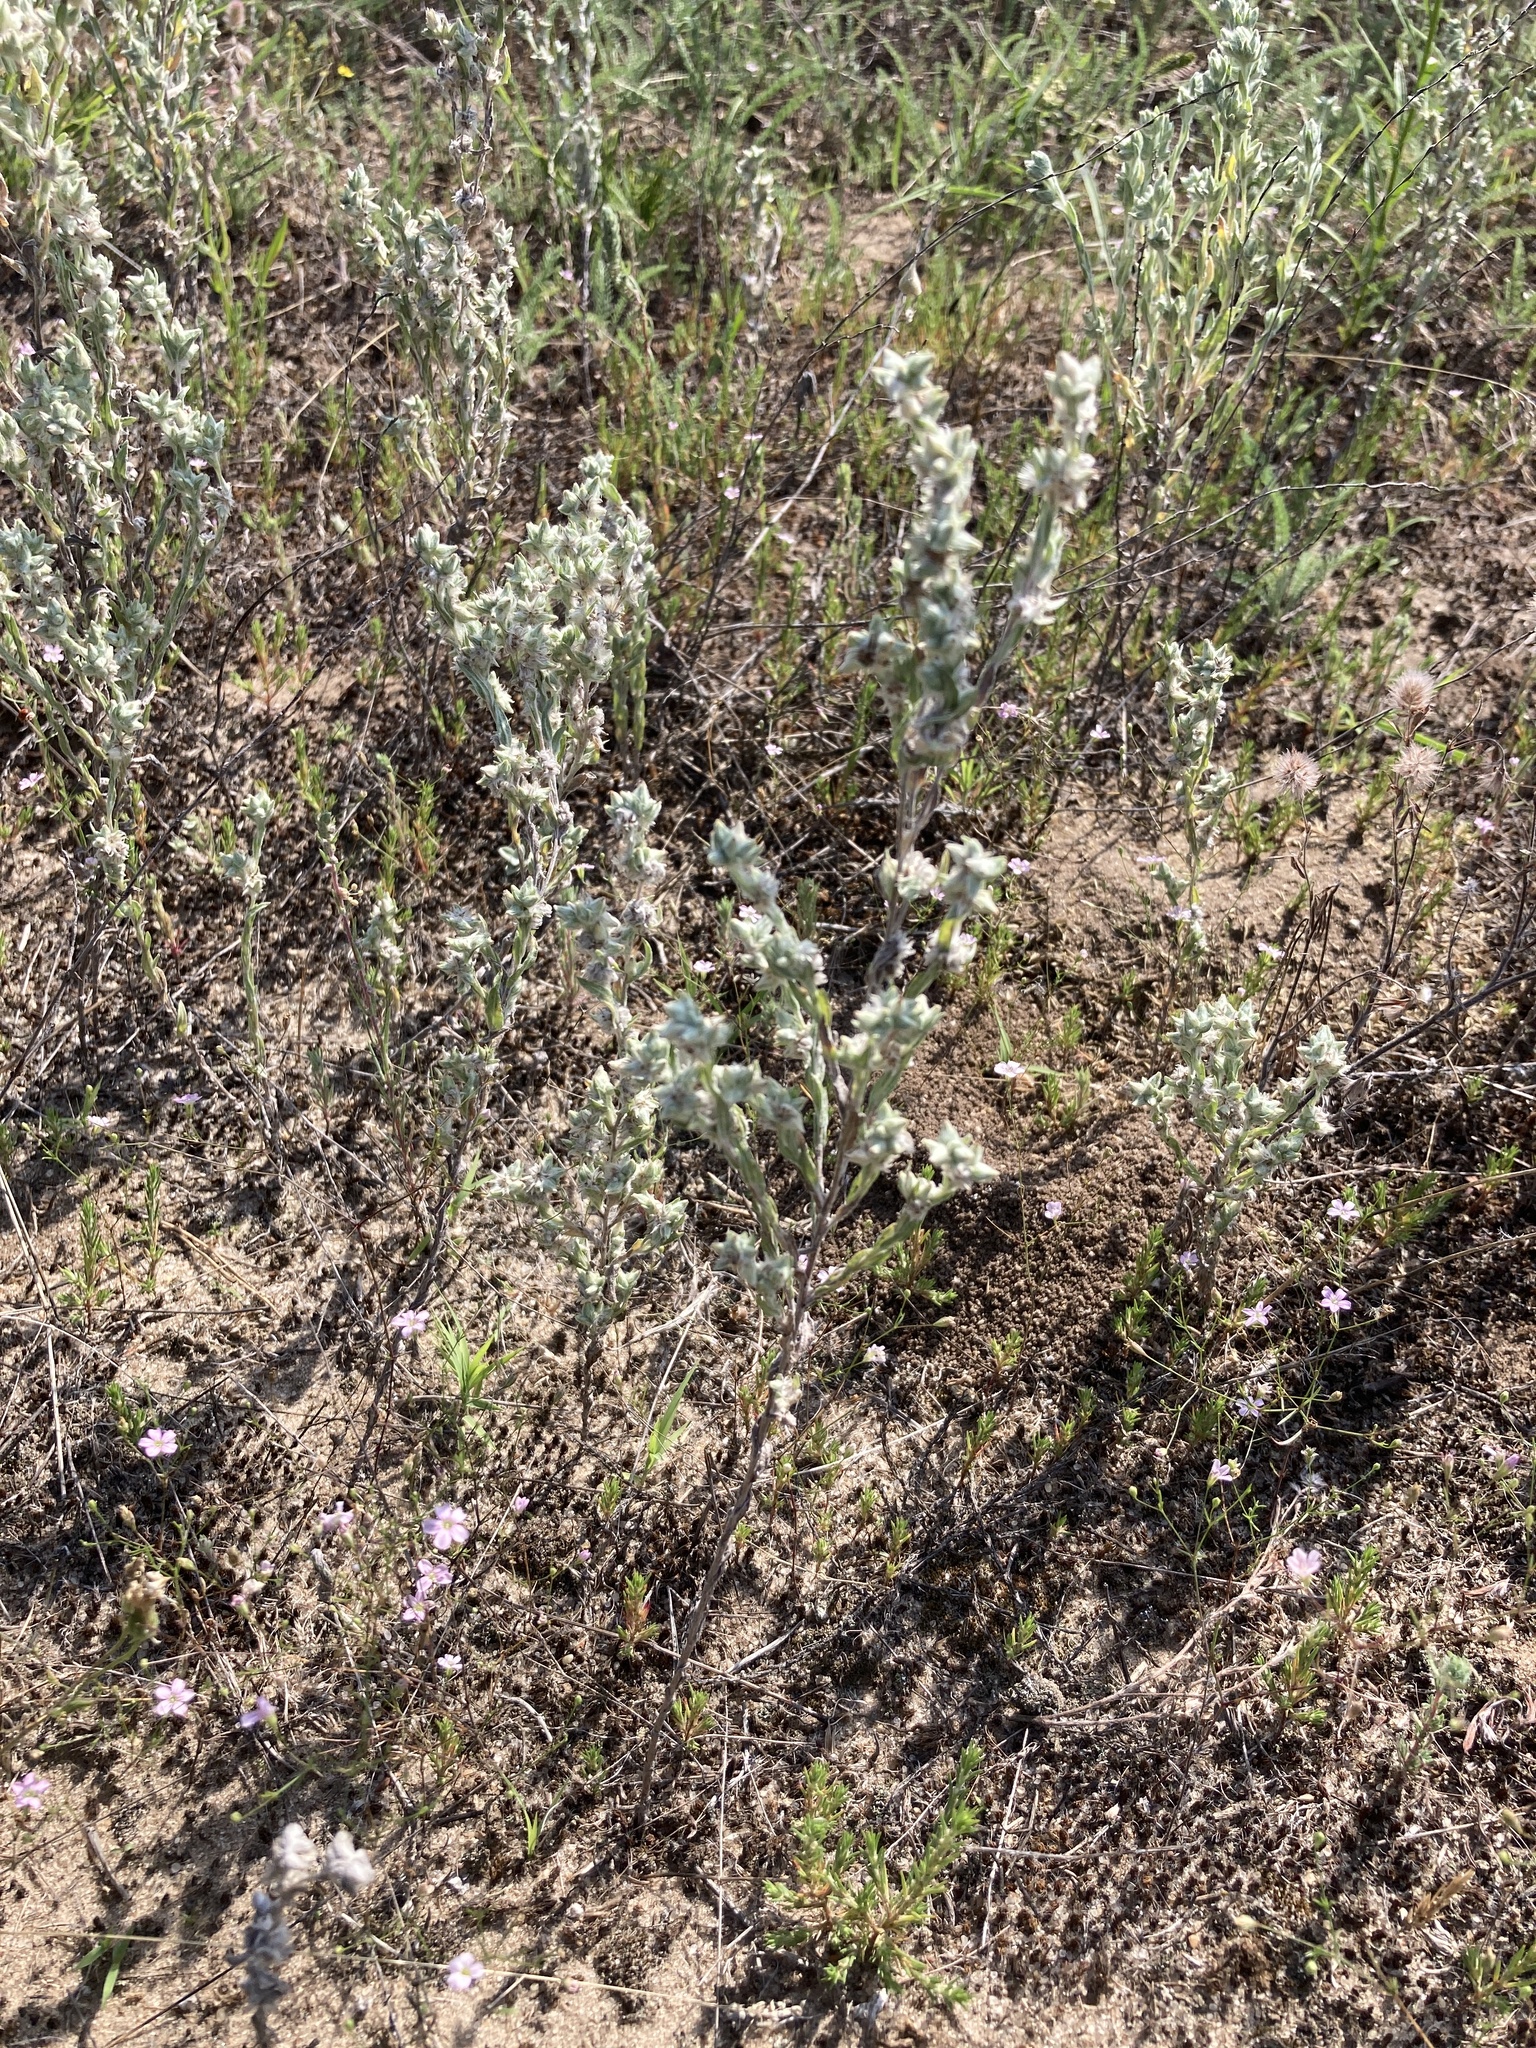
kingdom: Plantae
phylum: Tracheophyta
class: Magnoliopsida
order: Asterales
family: Asteraceae
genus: Filago
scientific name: Filago arvensis
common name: Field cudweed
